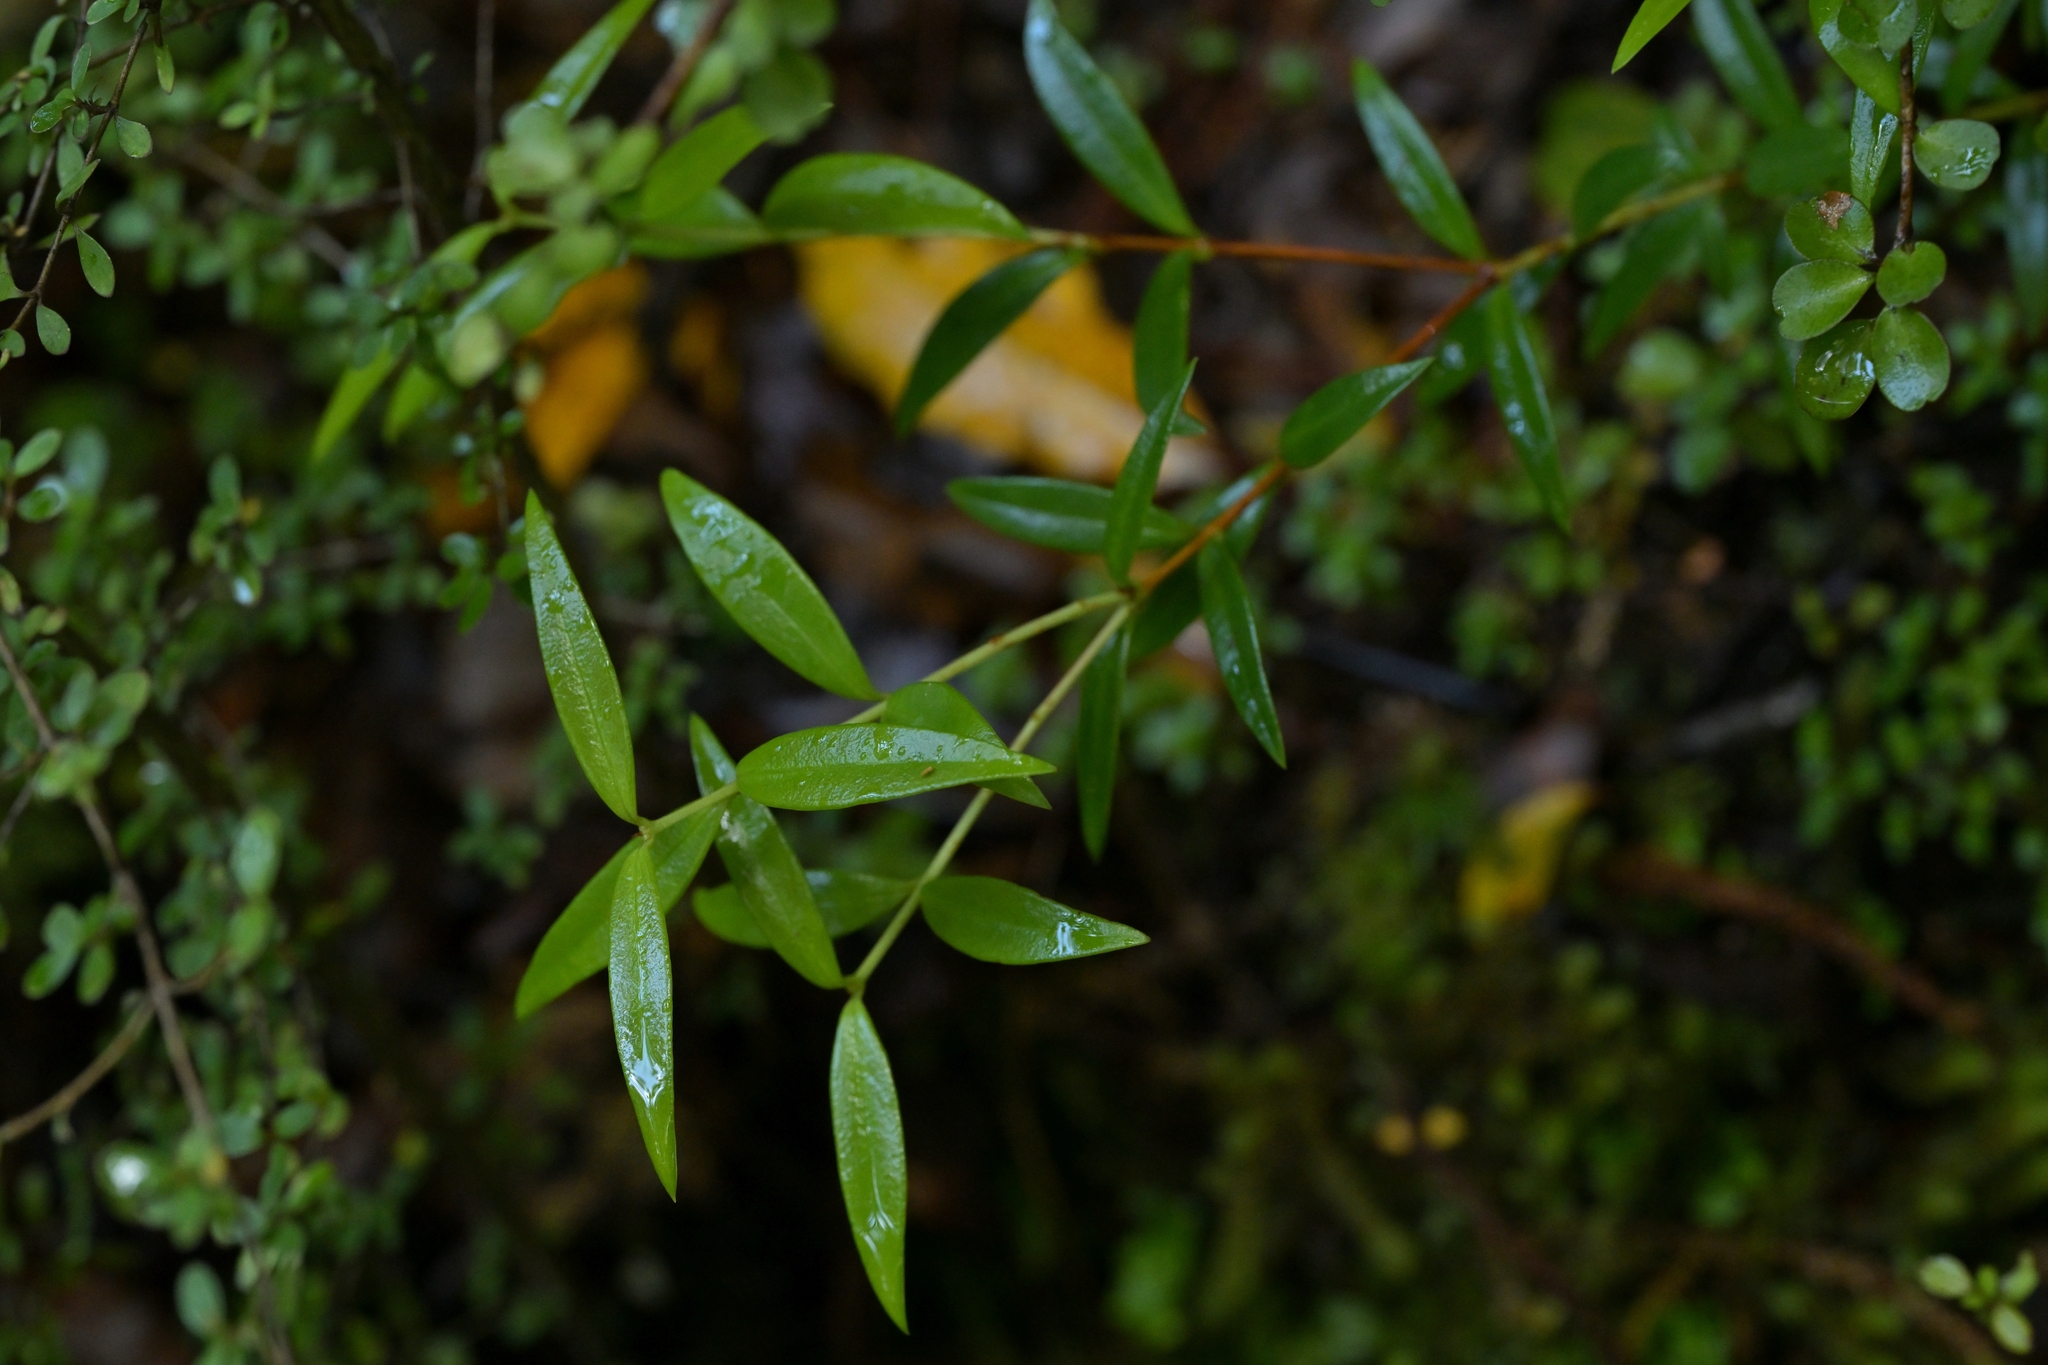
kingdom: Plantae
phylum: Tracheophyta
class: Magnoliopsida
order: Myrtales
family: Myrtaceae
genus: Metrosideros
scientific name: Metrosideros umbellata
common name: Southern rata
